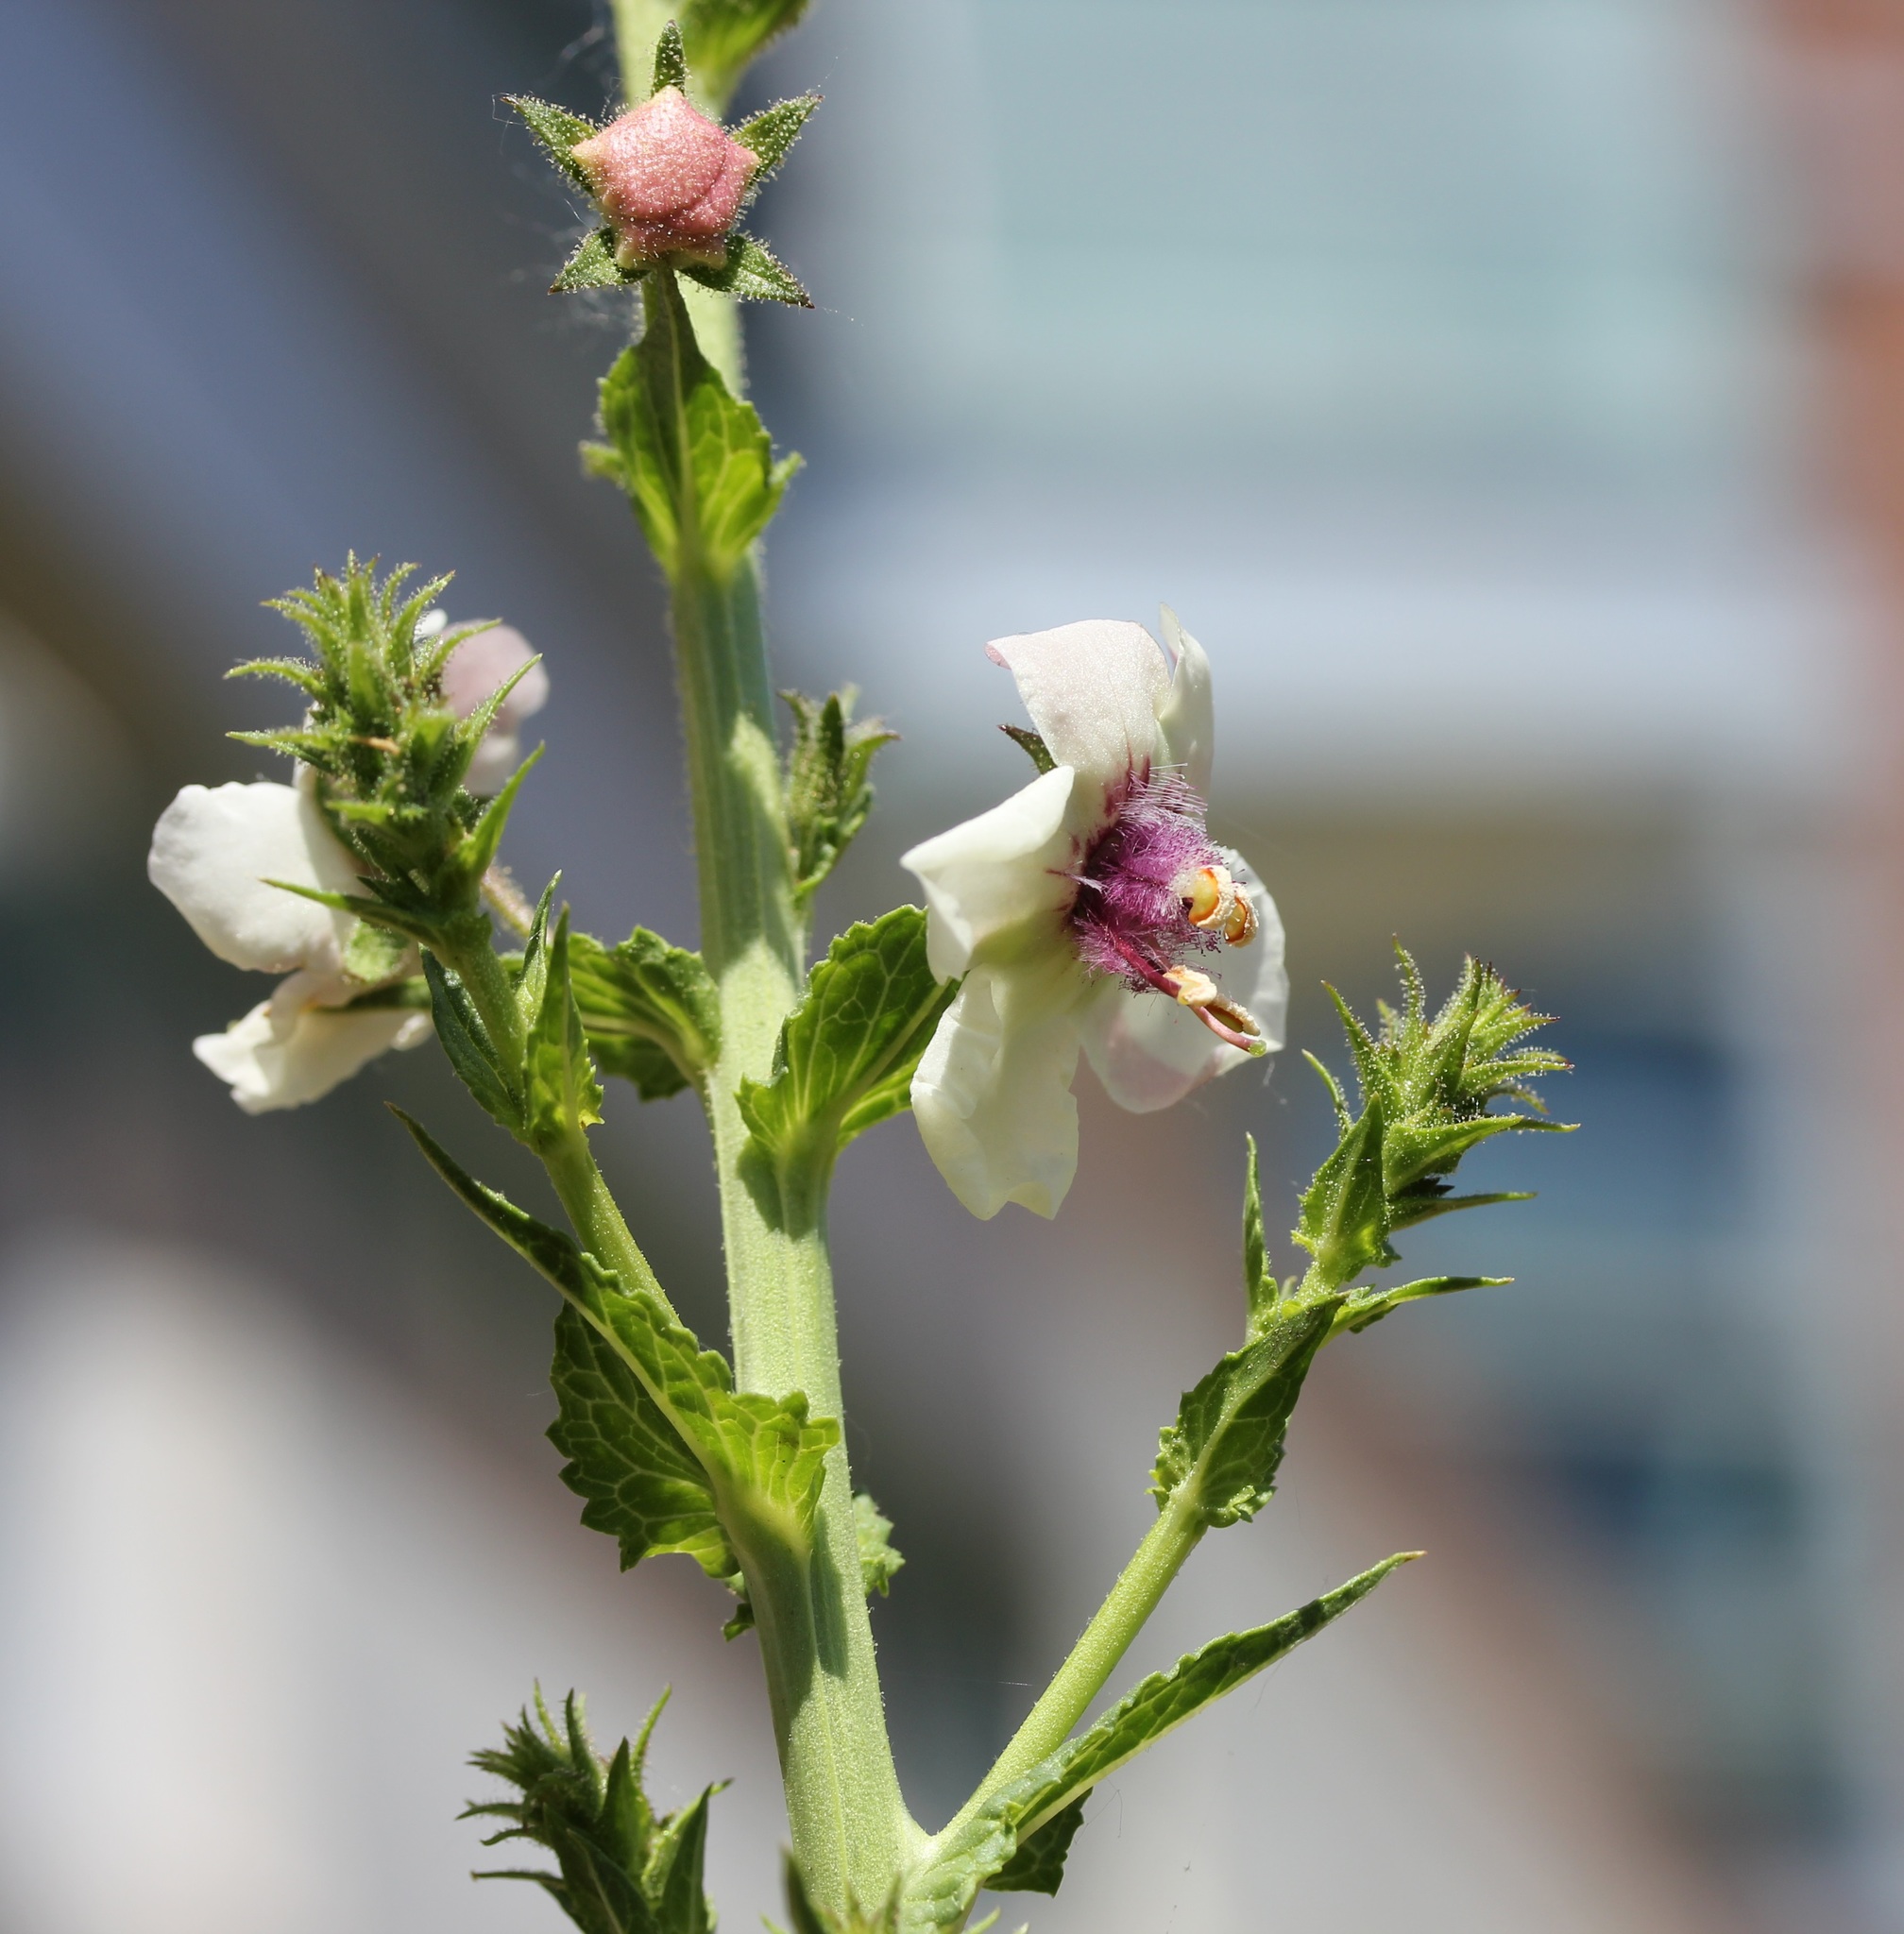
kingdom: Plantae
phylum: Tracheophyta
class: Magnoliopsida
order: Lamiales
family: Scrophulariaceae
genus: Verbascum
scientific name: Verbascum blattaria
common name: Moth mullein
